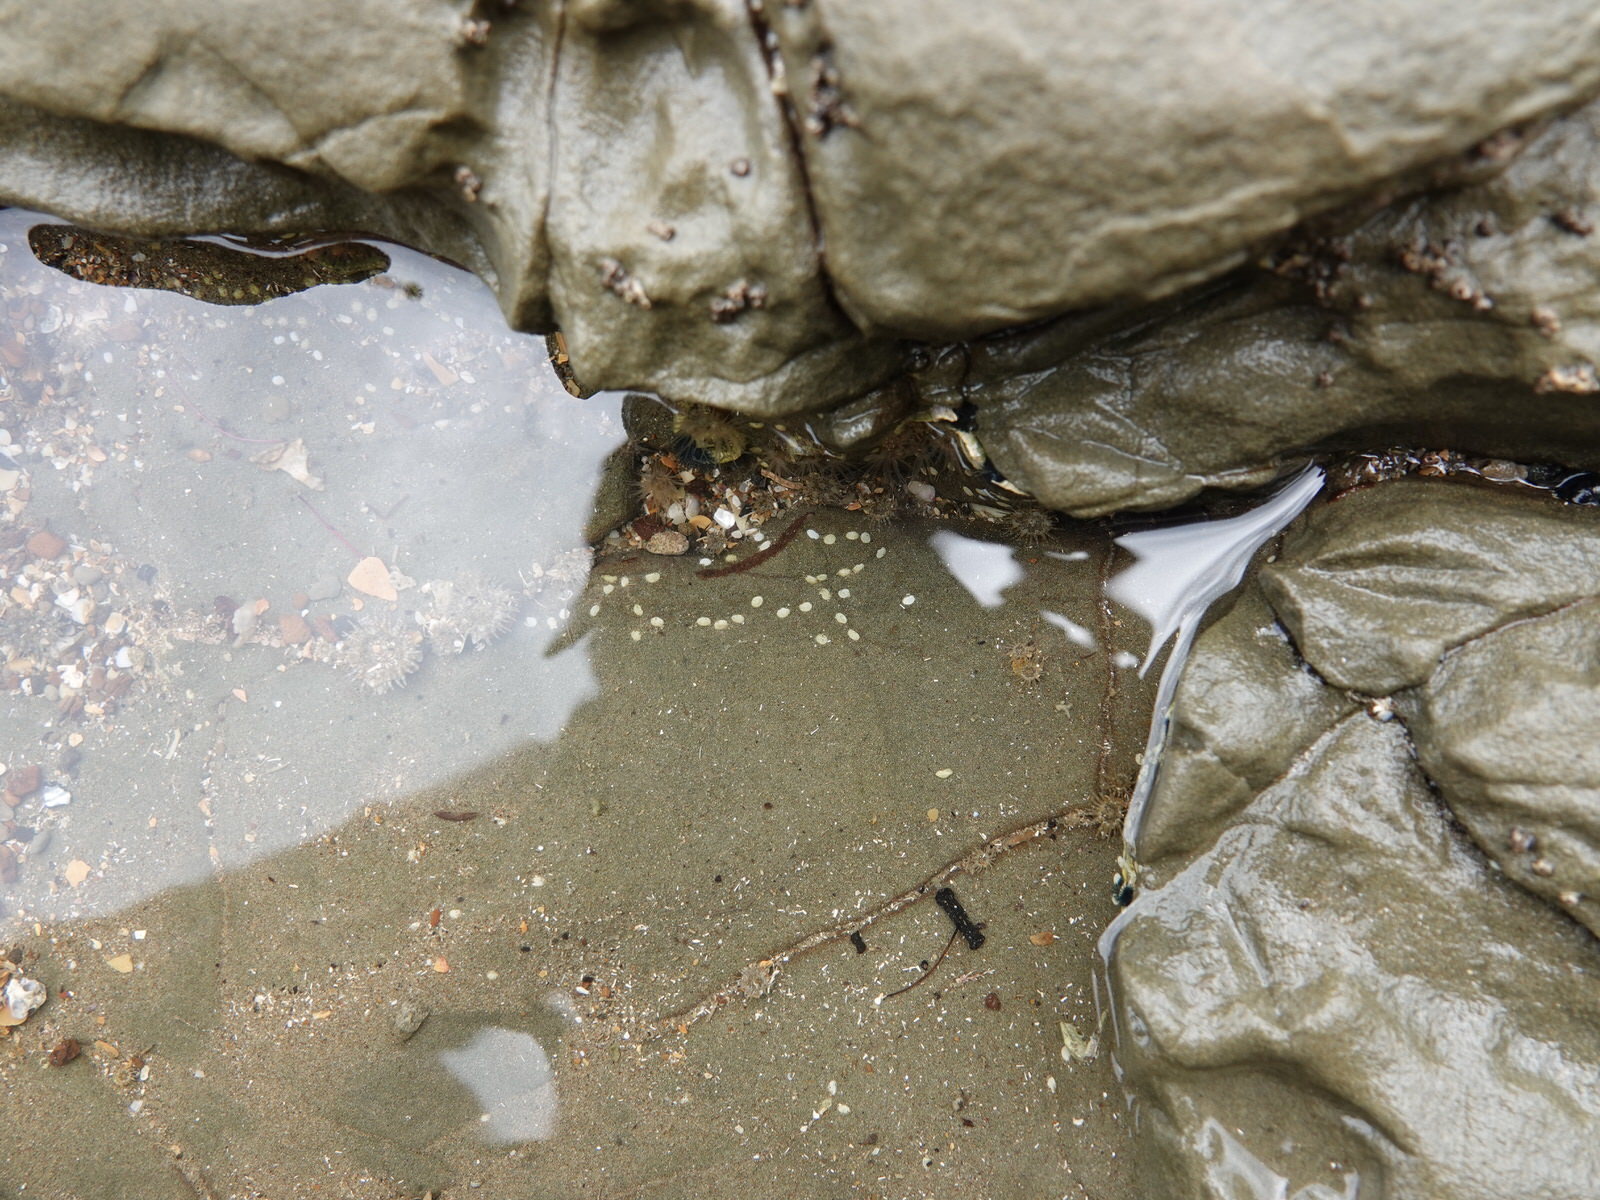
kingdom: Animalia
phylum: Mollusca
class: Gastropoda
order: Cycloneritida
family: Neritidae
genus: Nerita
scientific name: Nerita melanotragus
